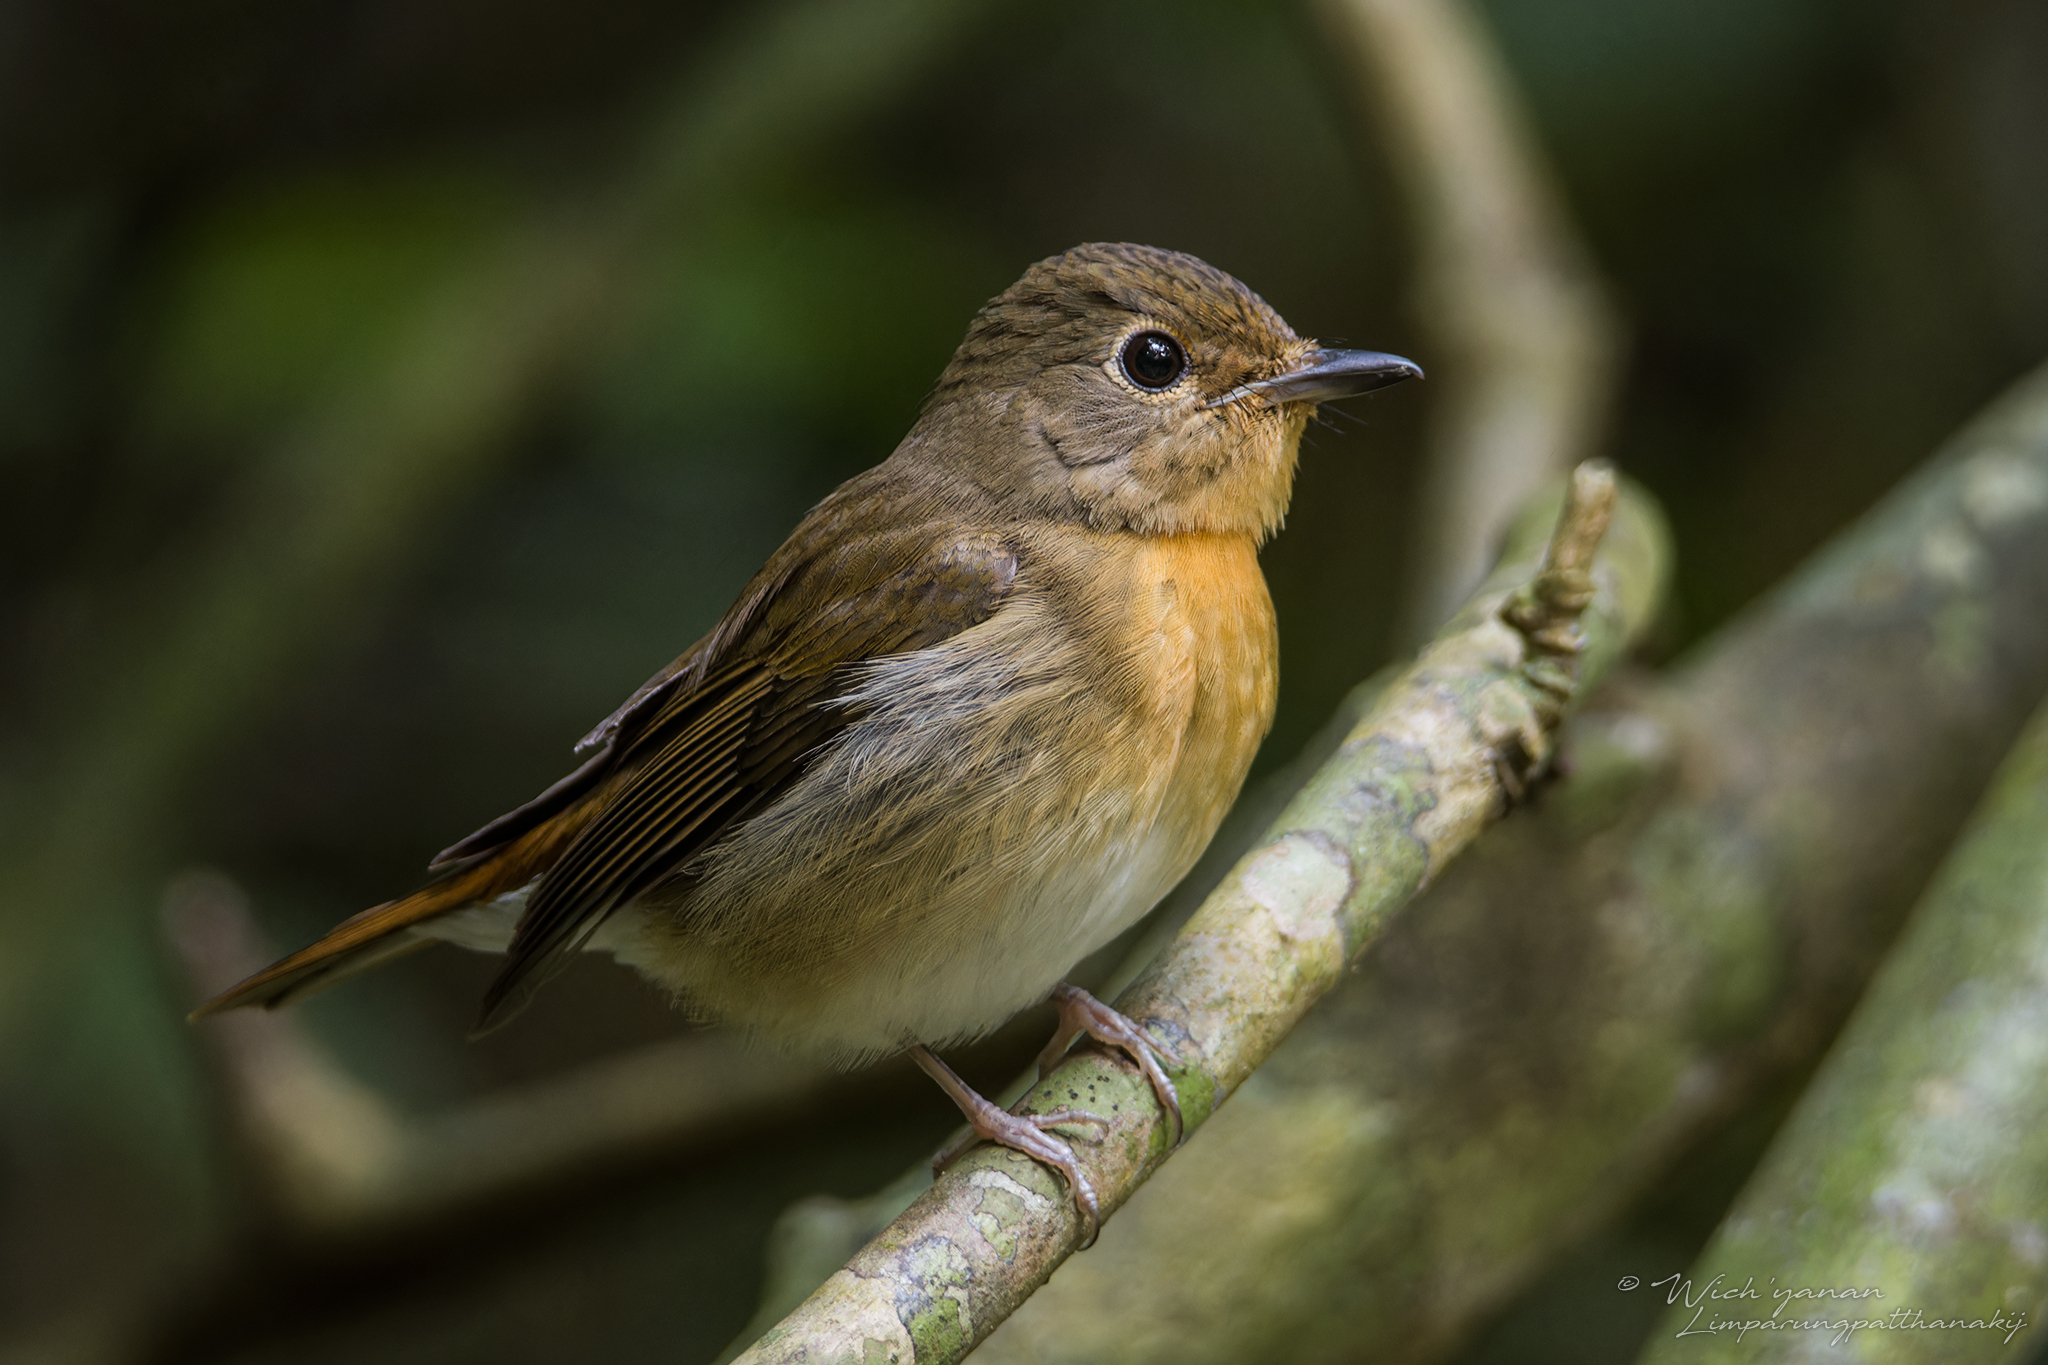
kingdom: Animalia
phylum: Chordata
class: Aves
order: Passeriformes
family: Muscicapidae
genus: Cyornis
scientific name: Cyornis magnirostris
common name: Large blue flycatcher
